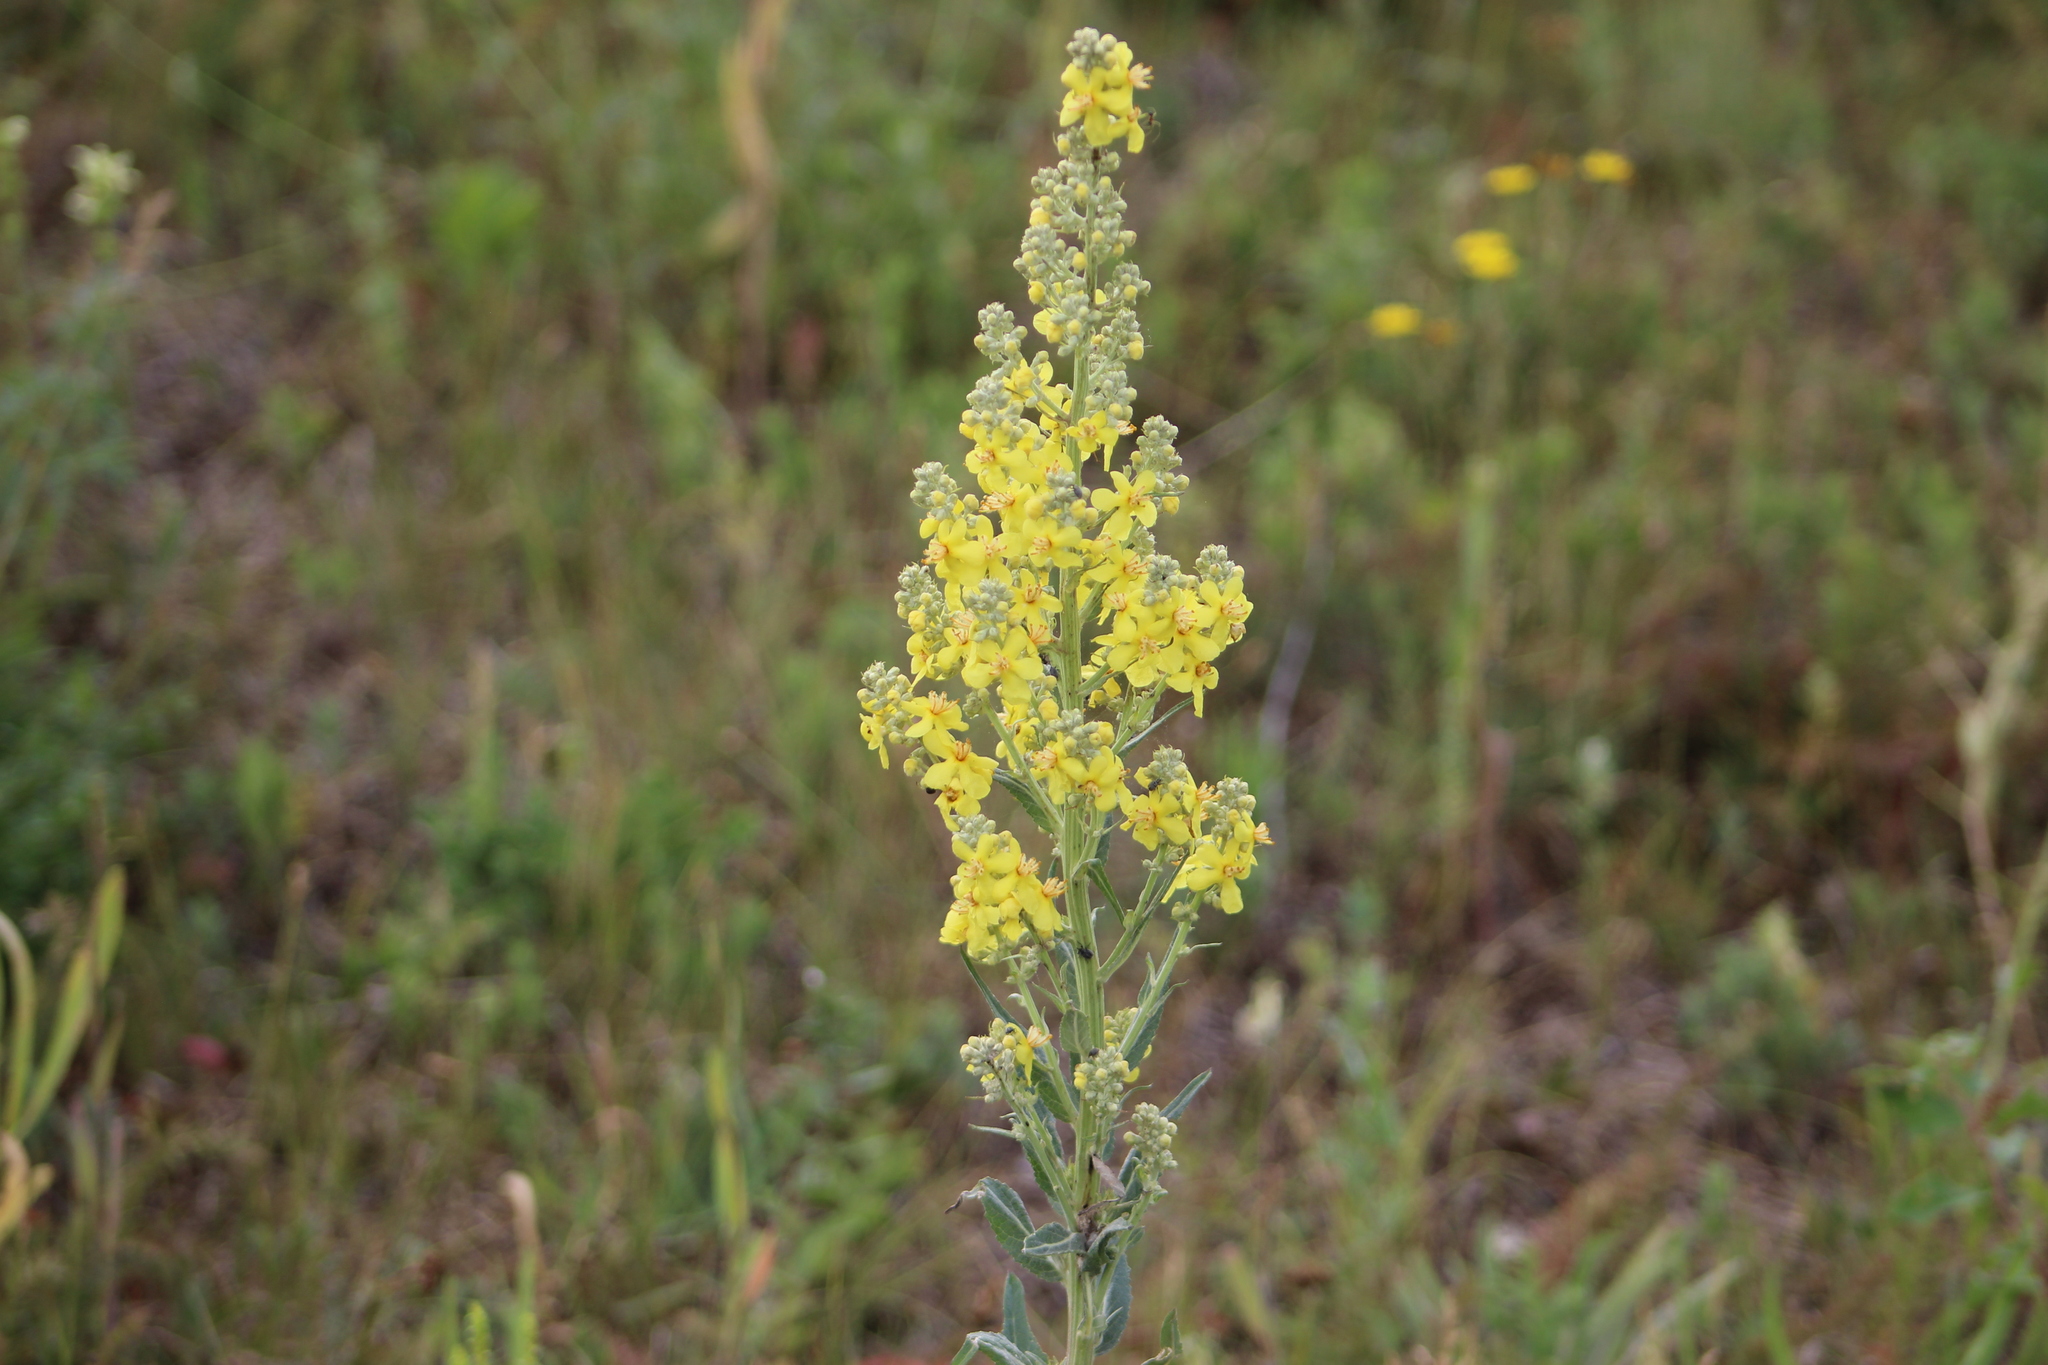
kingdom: Plantae
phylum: Tracheophyta
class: Magnoliopsida
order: Lamiales
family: Scrophulariaceae
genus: Verbascum
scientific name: Verbascum lychnitis
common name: White mullein
